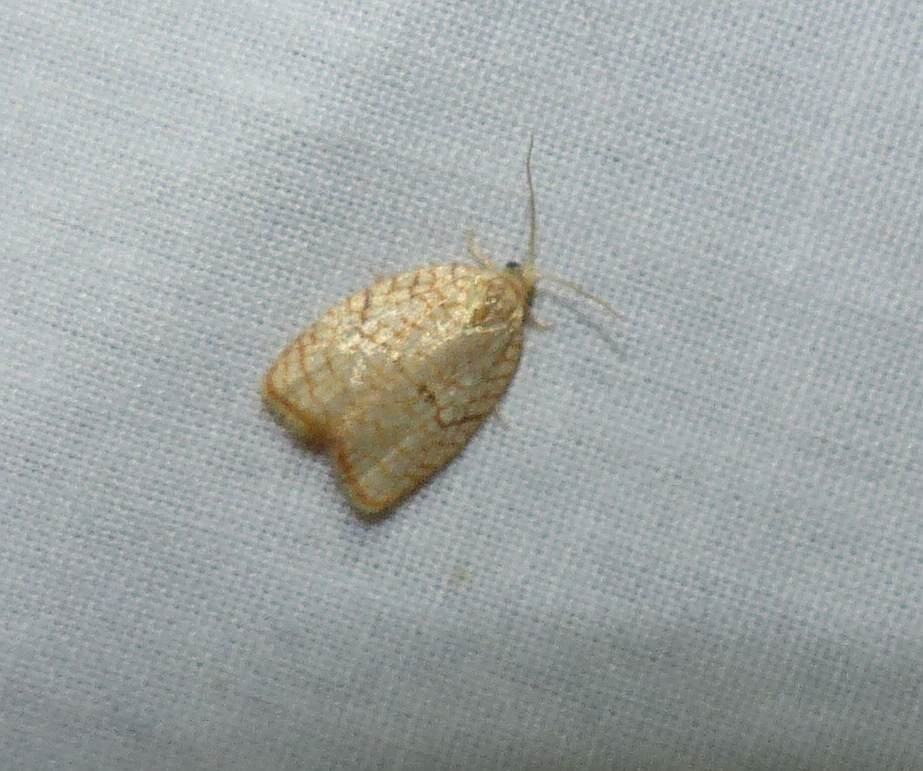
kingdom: Animalia
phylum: Arthropoda
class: Insecta
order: Lepidoptera
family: Tortricidae
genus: Acleris
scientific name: Acleris forsskaleana
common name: Maple button
